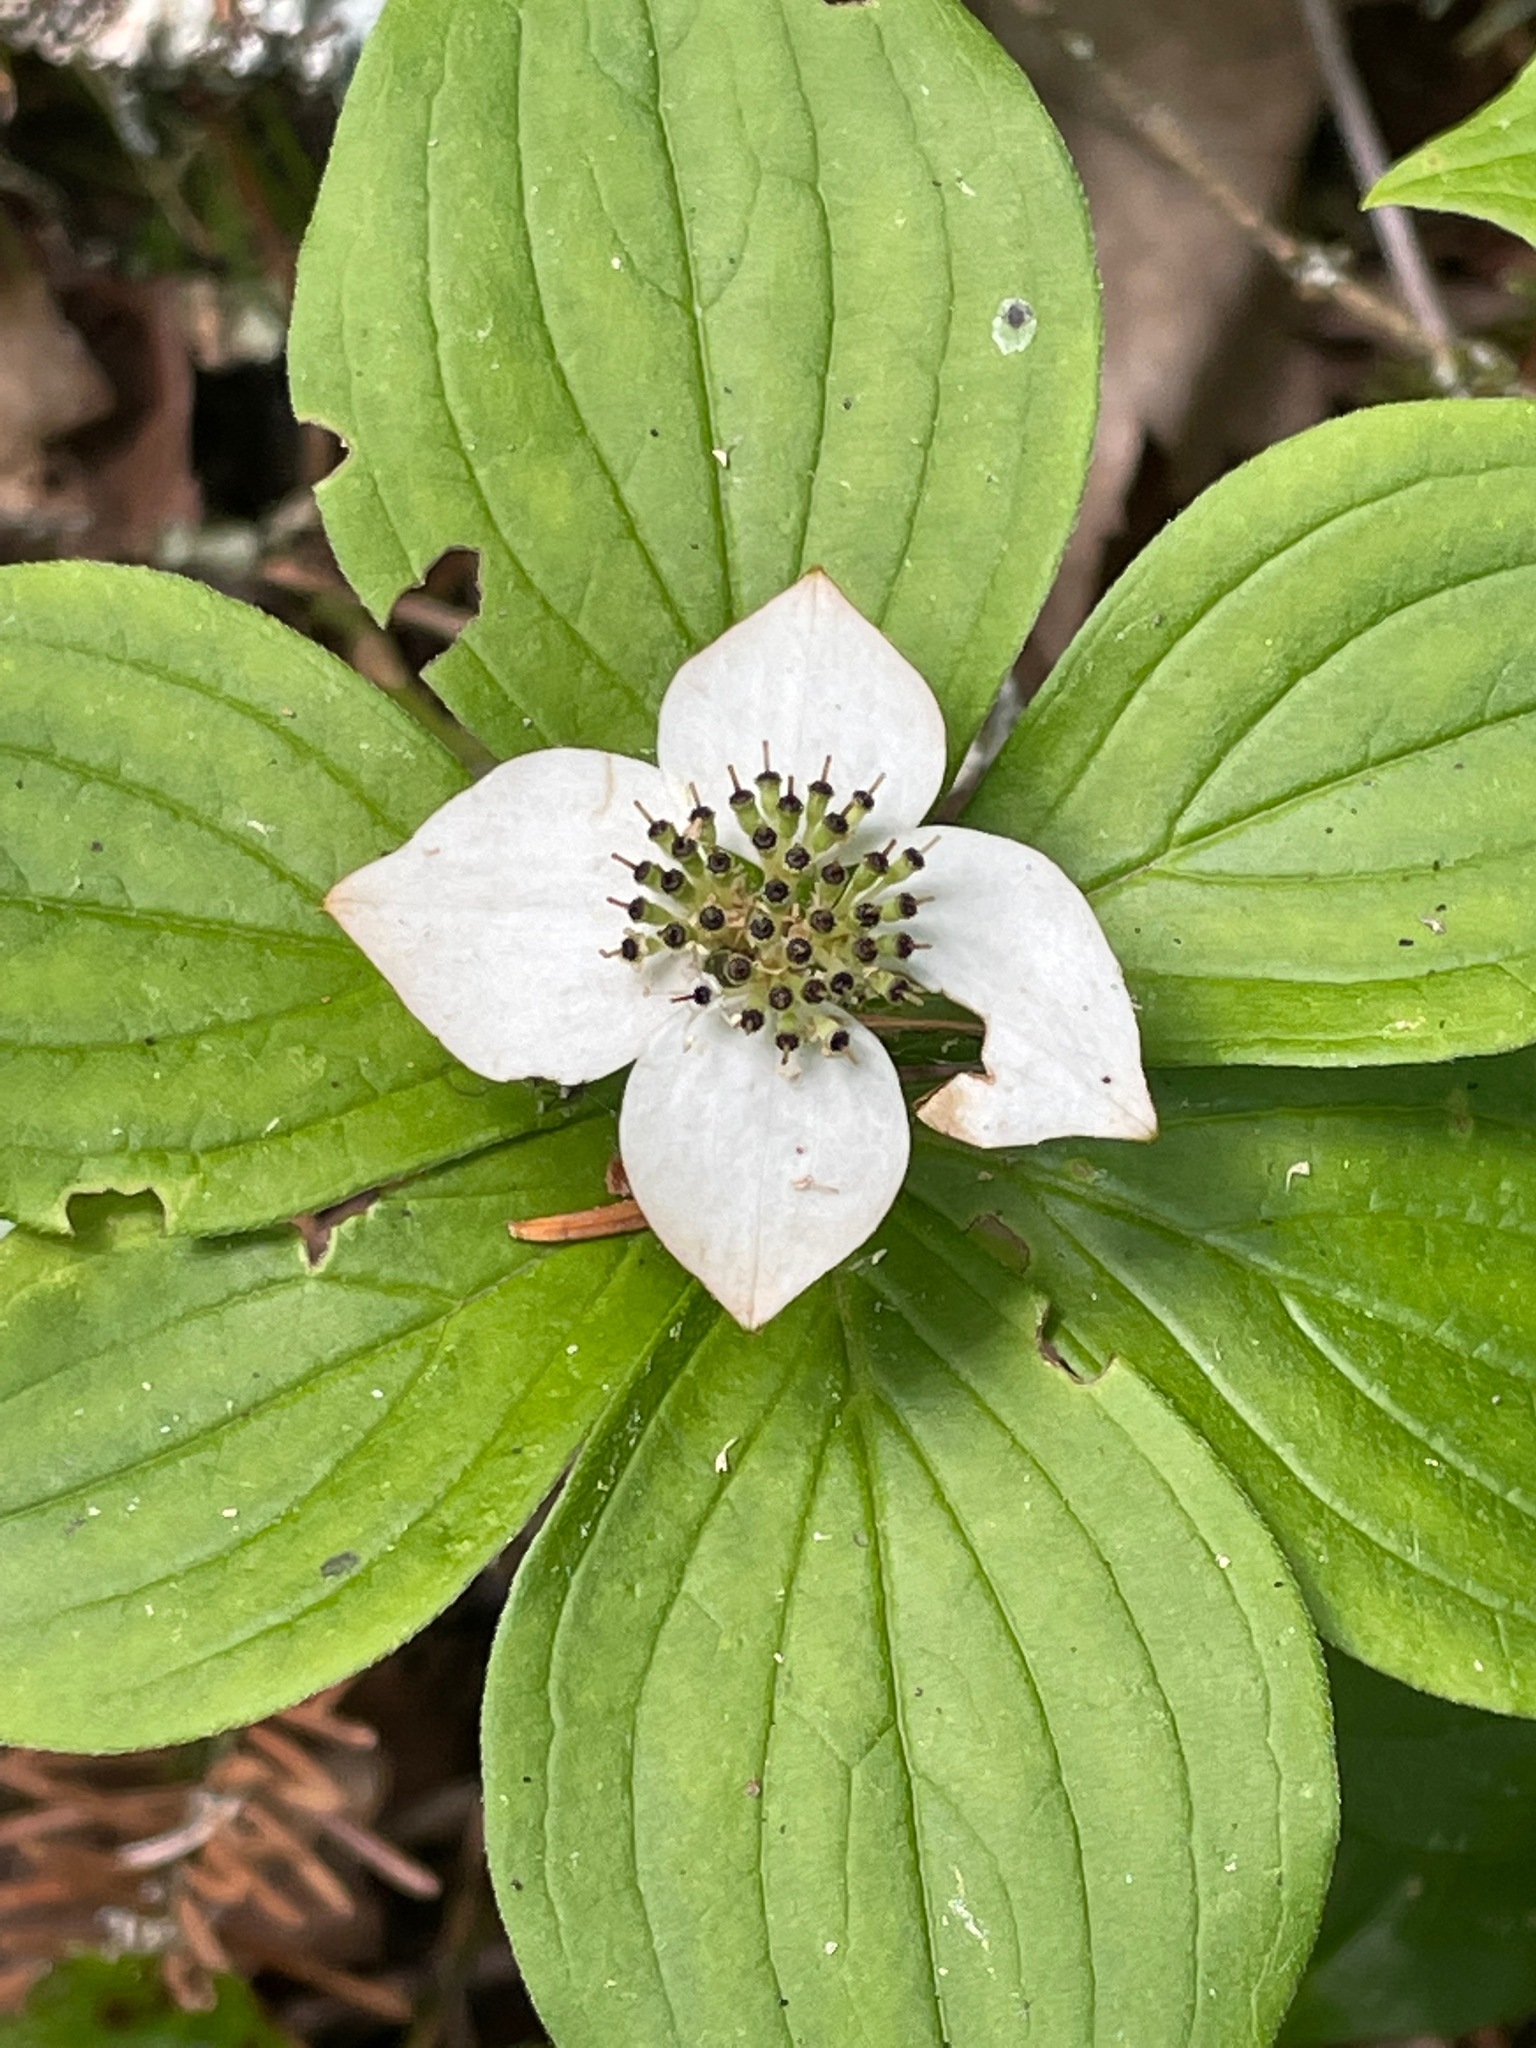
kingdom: Plantae
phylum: Tracheophyta
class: Magnoliopsida
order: Cornales
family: Cornaceae
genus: Cornus
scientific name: Cornus canadensis
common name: Creeping dogwood
